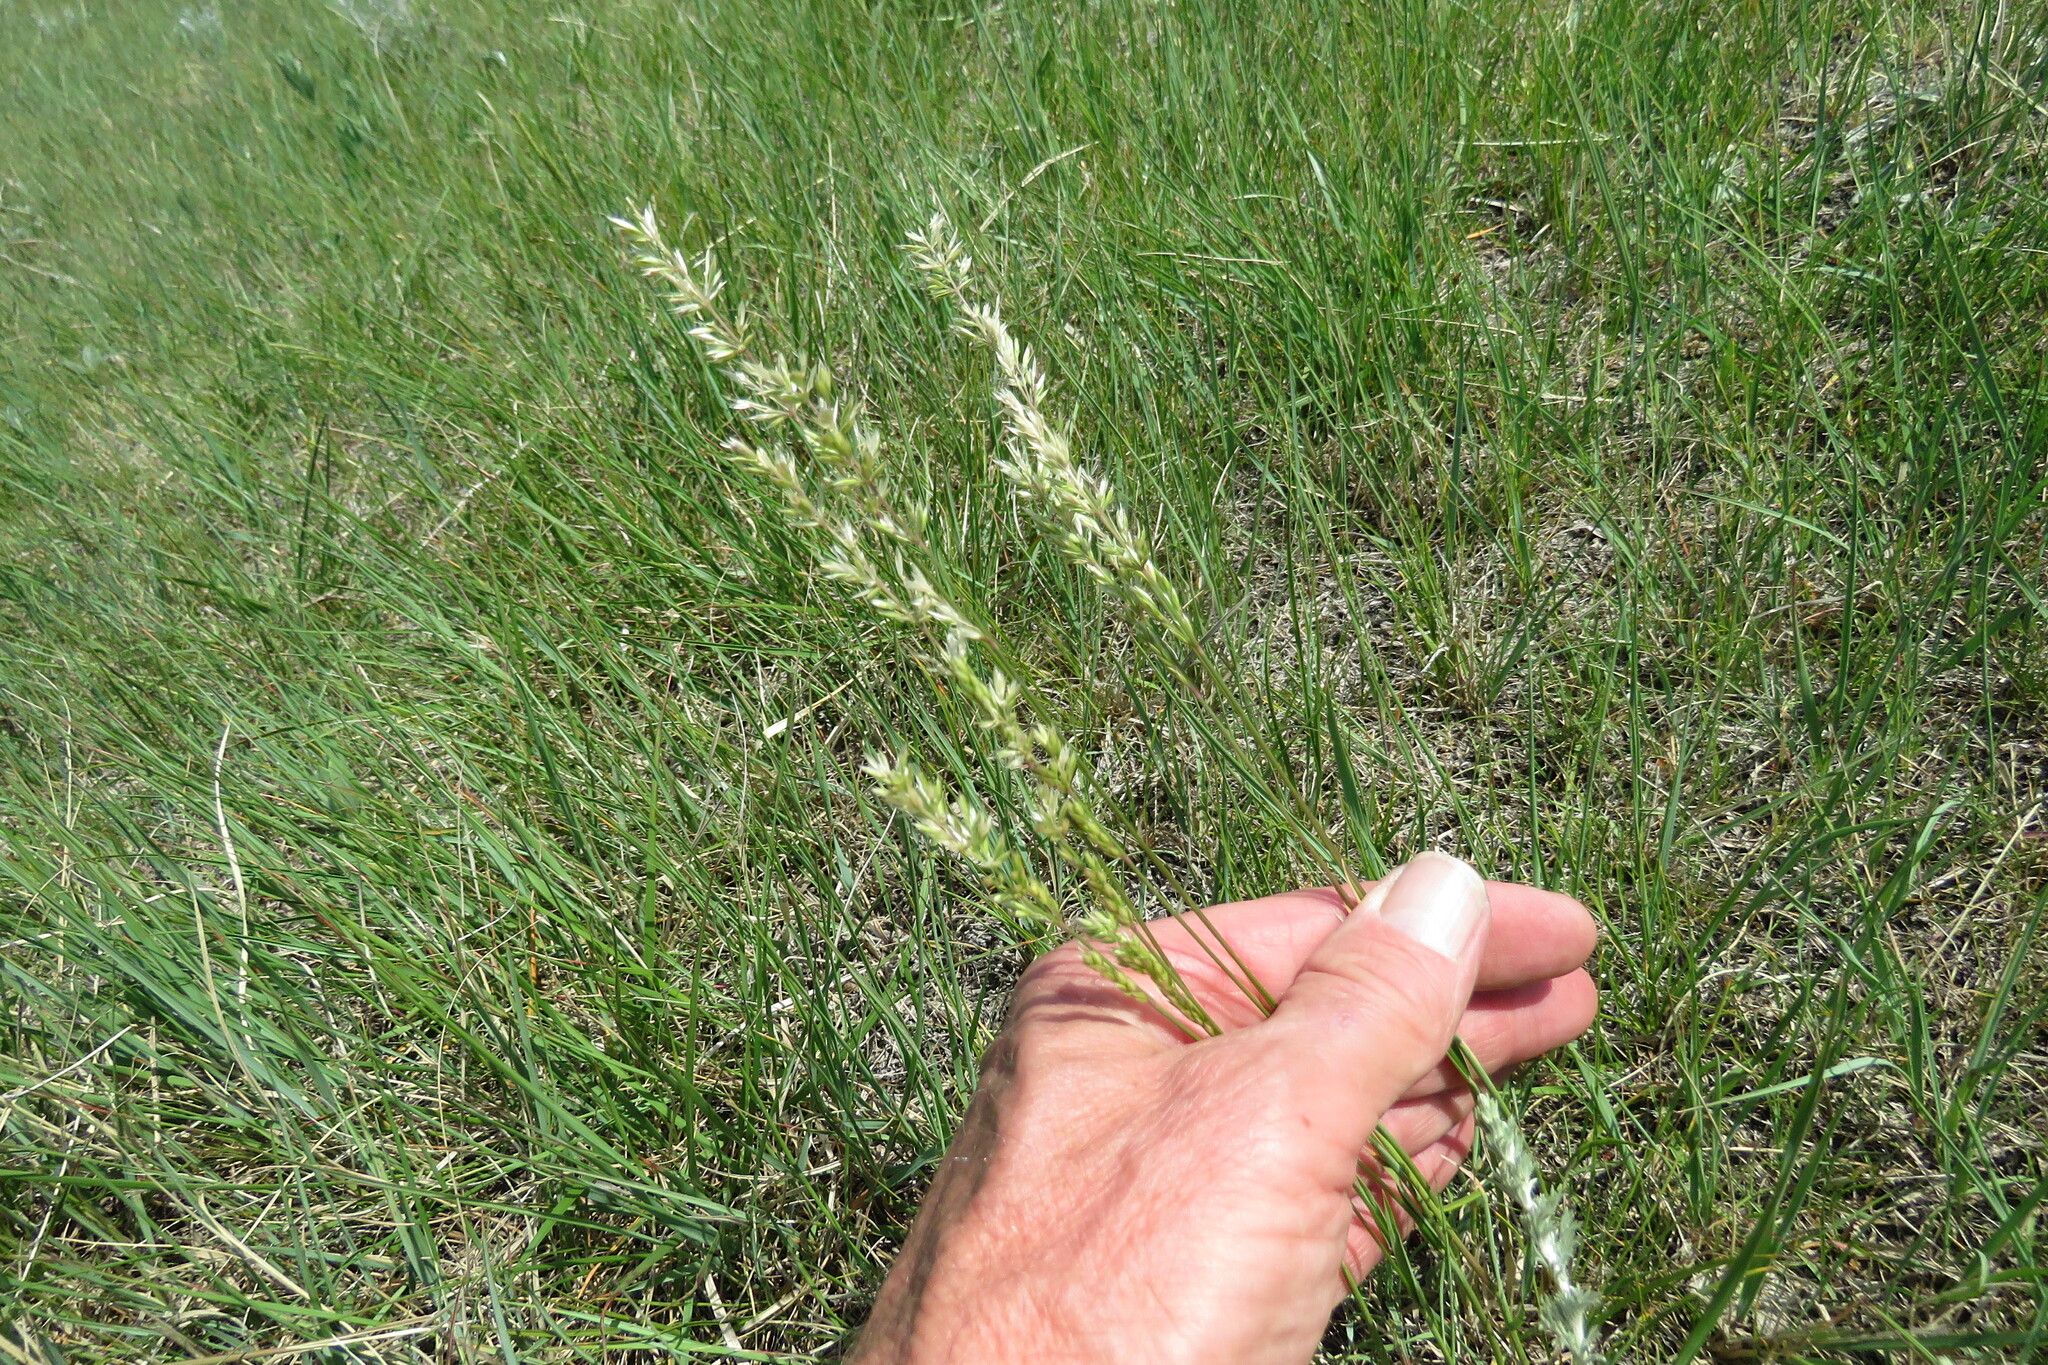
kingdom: Plantae
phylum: Tracheophyta
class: Liliopsida
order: Poales
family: Poaceae
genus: Koeleria
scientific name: Koeleria macrantha
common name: Crested hair-grass
